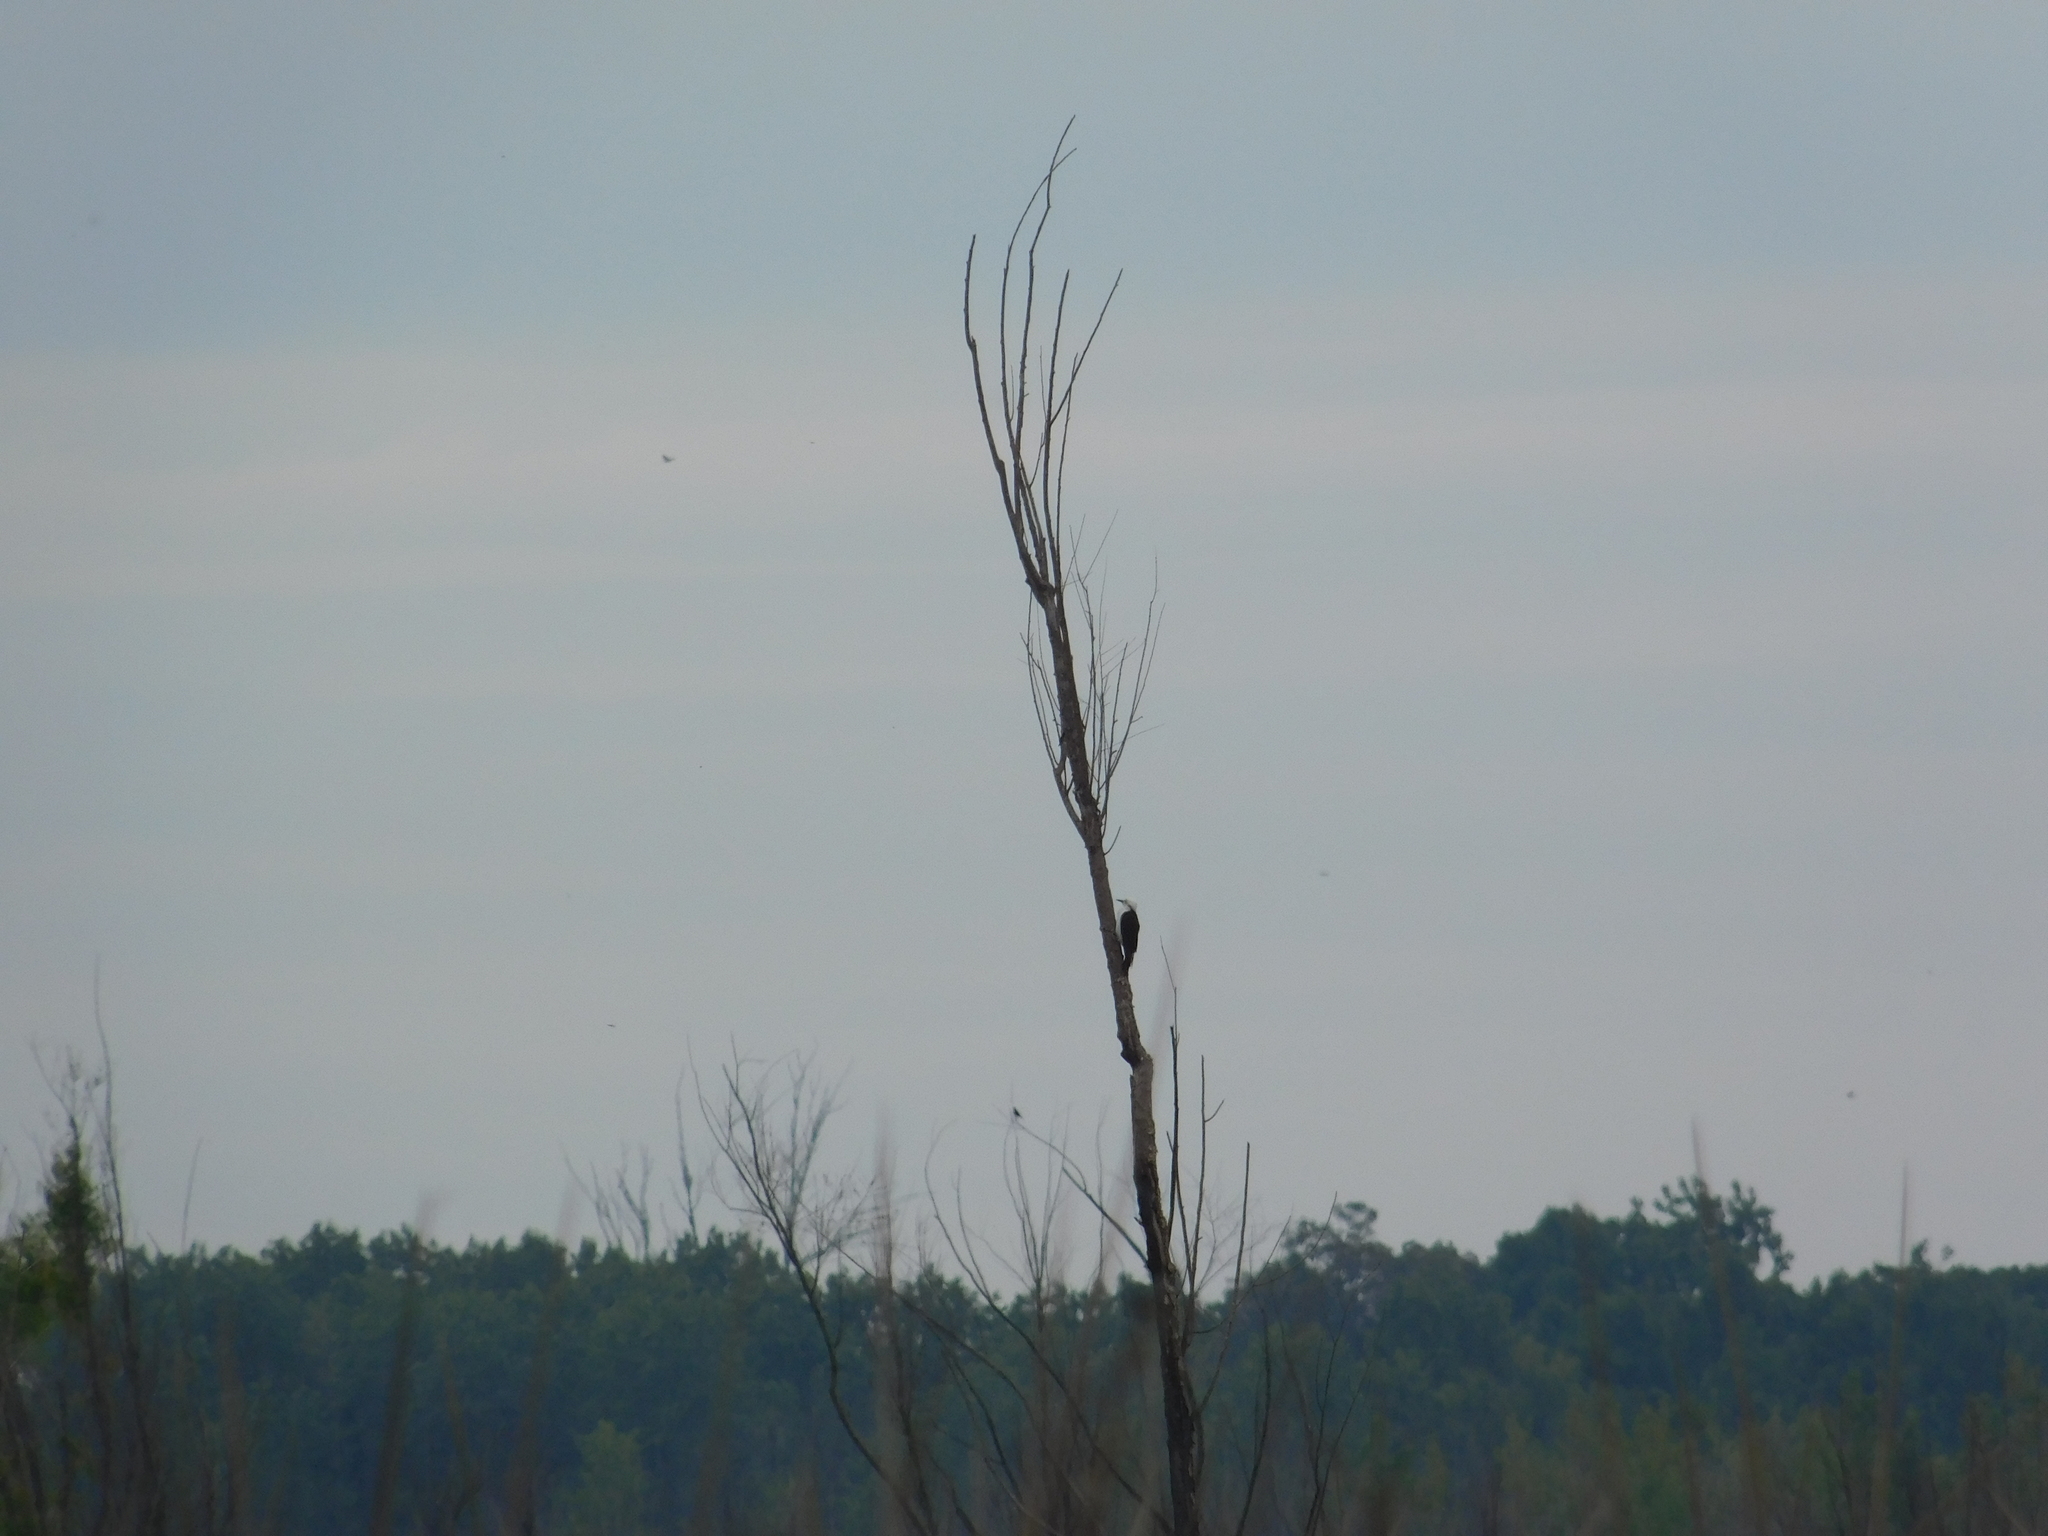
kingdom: Animalia
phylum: Chordata
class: Aves
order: Piciformes
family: Picidae
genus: Melanerpes
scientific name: Melanerpes candidus
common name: White woodpecker
